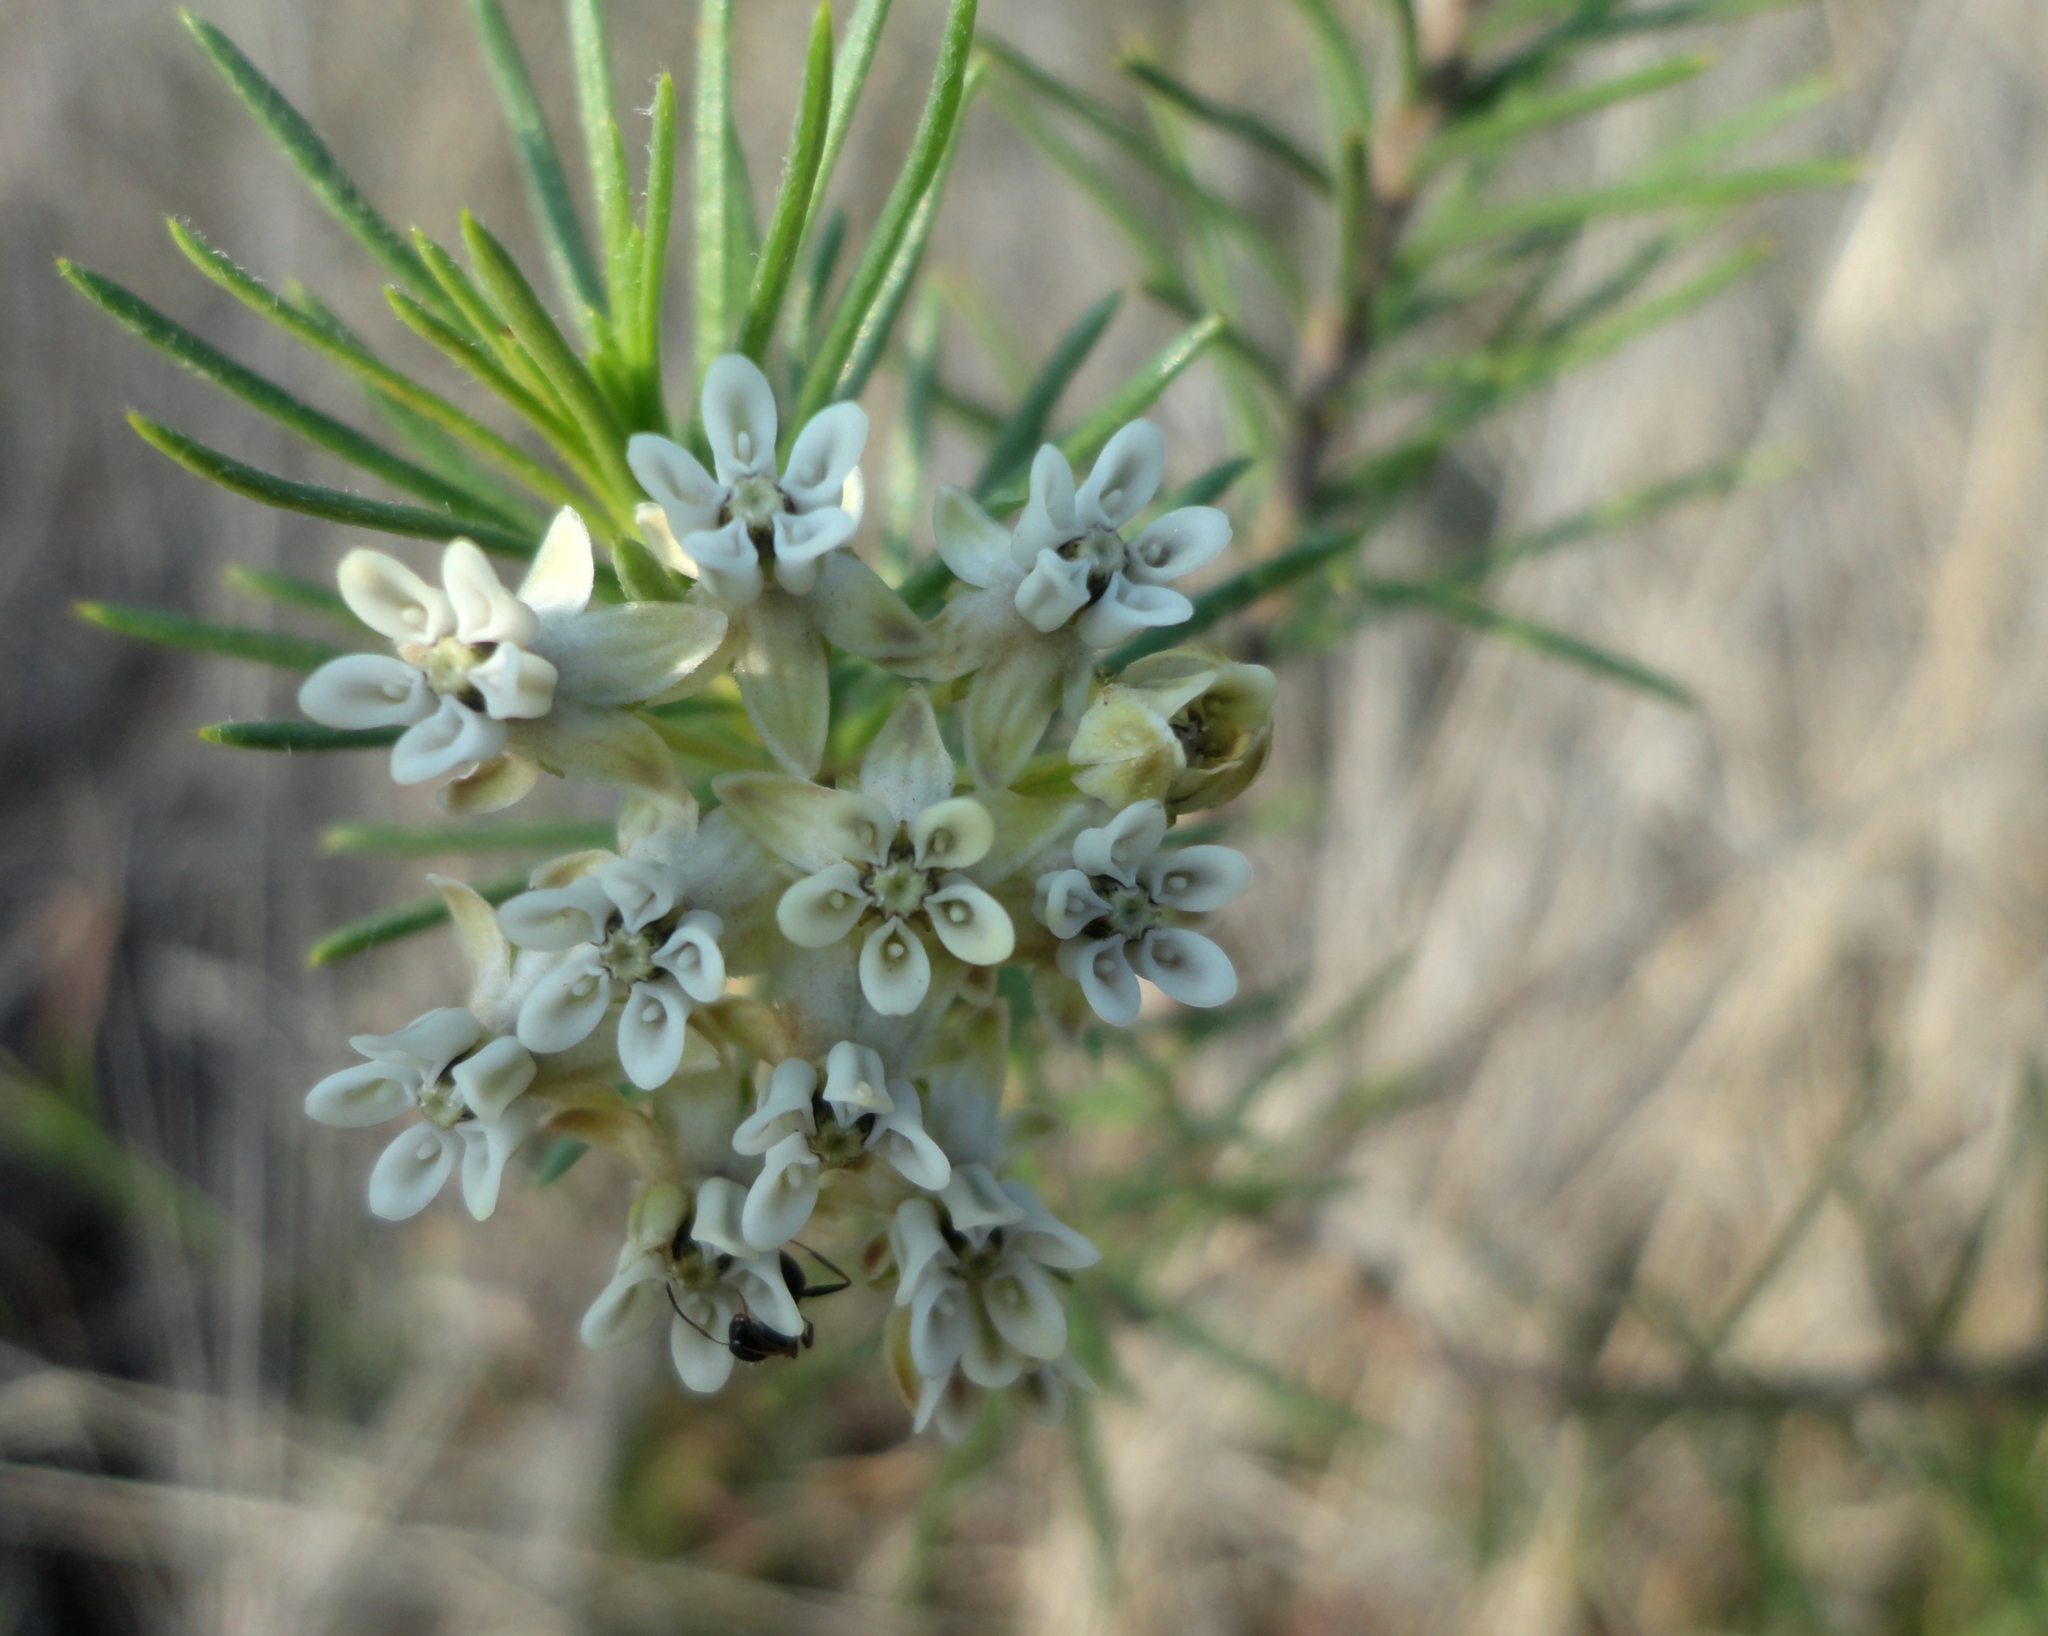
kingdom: Plantae
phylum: Tracheophyta
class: Magnoliopsida
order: Gentianales
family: Apocynaceae
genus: Asclepias
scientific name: Asclepias linaria
